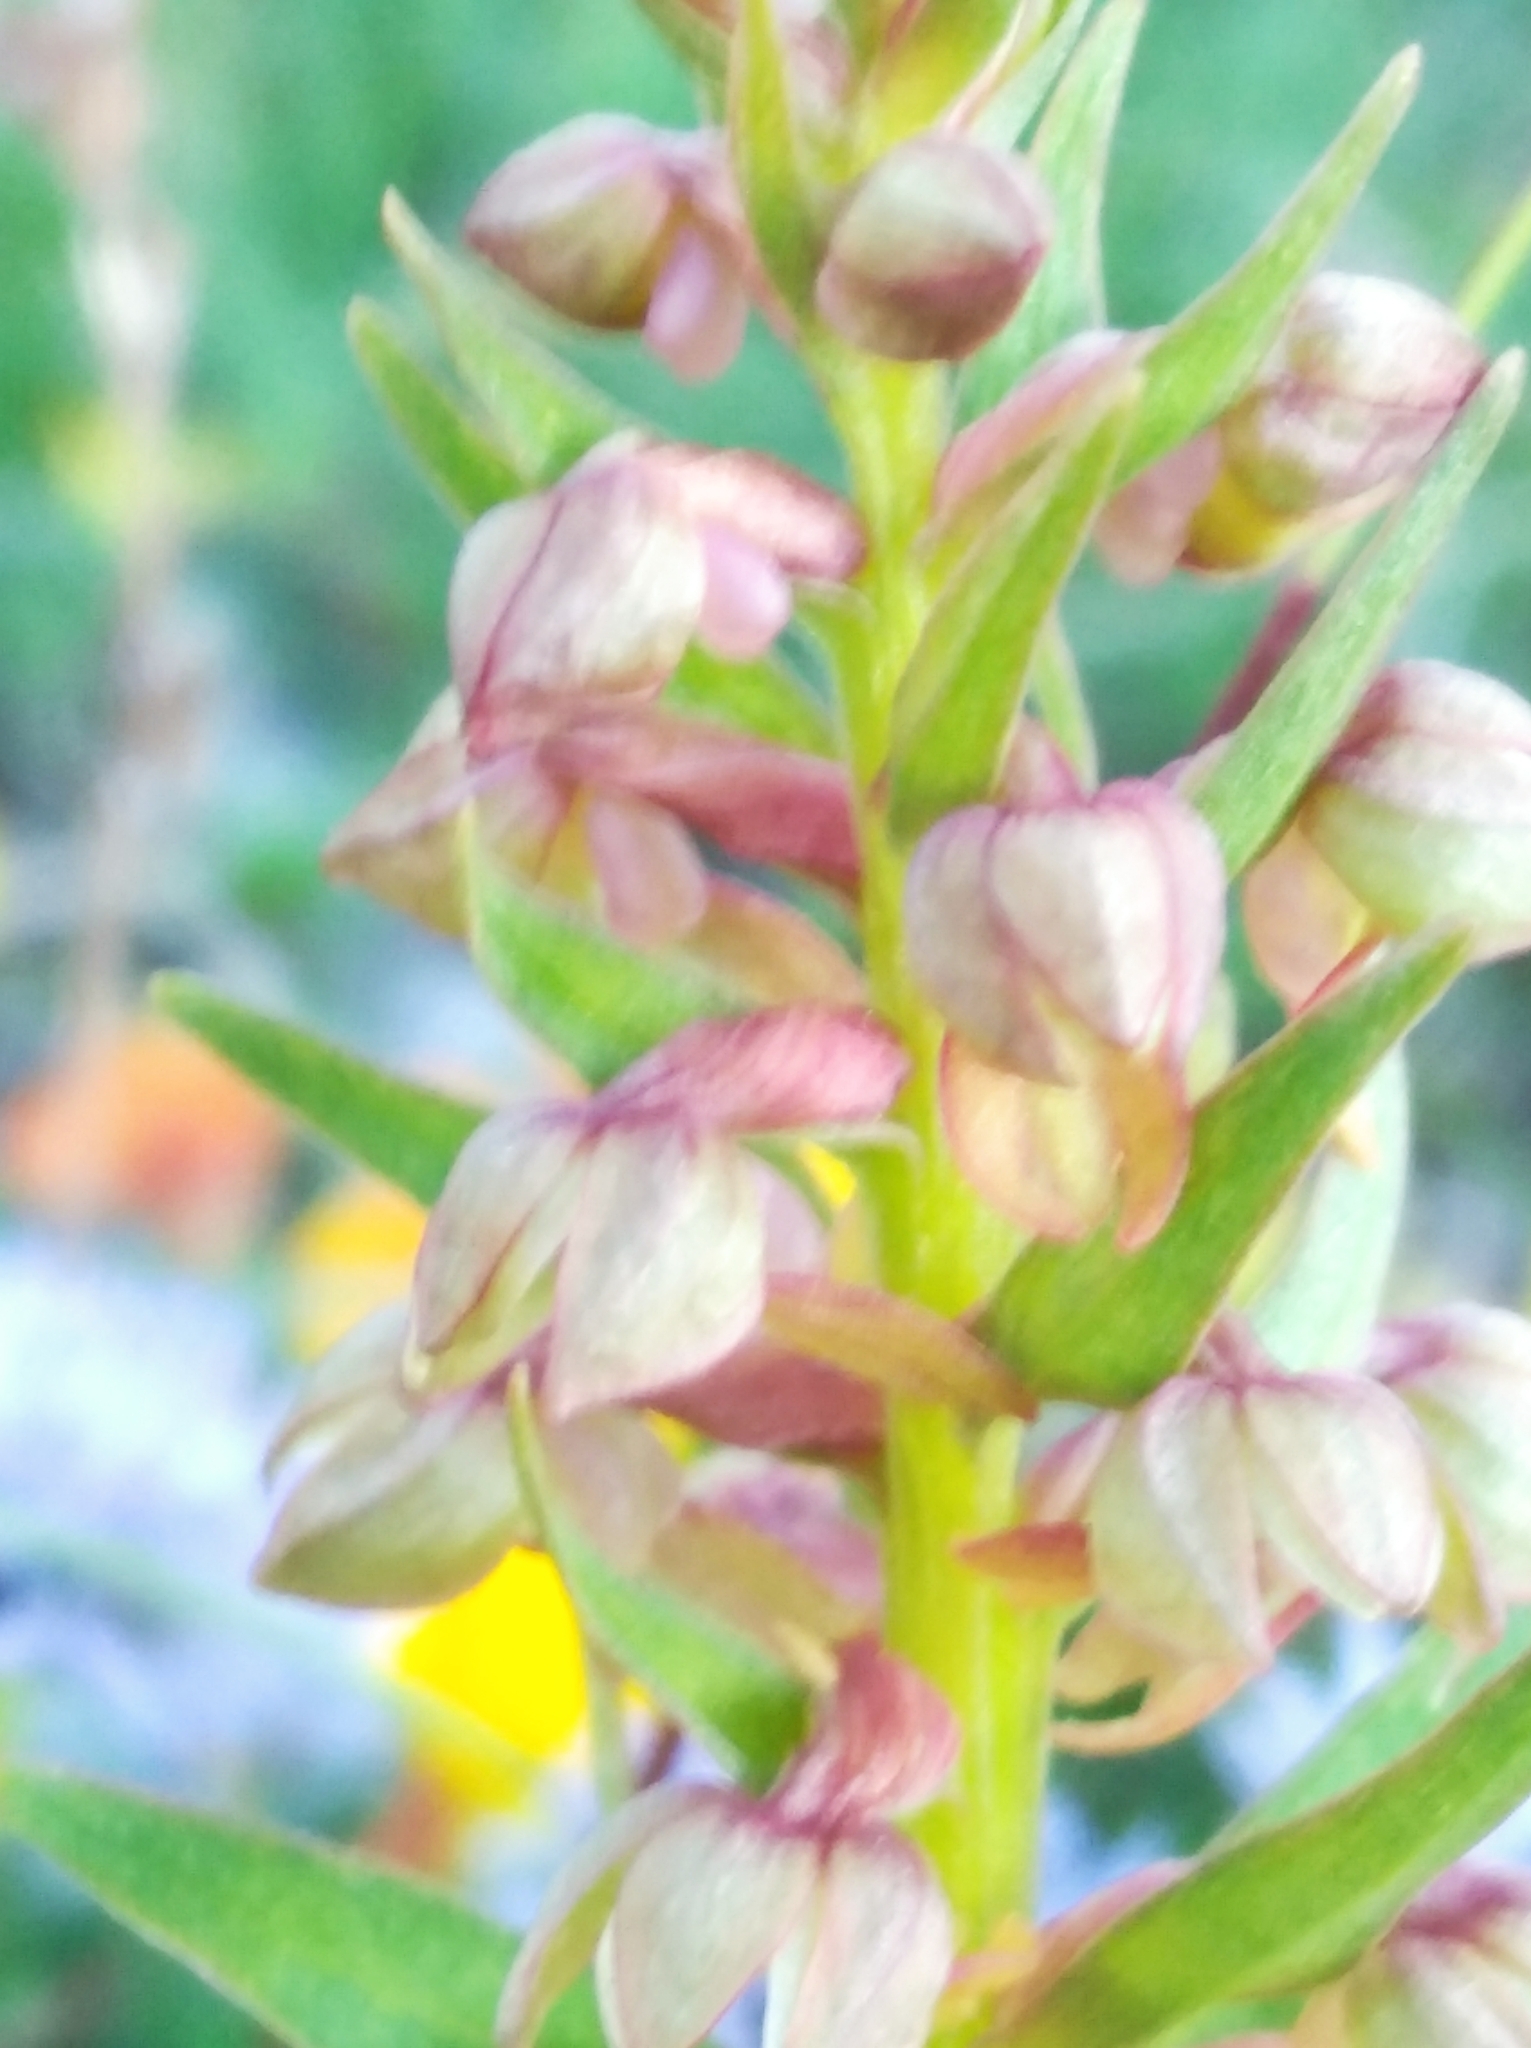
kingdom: Plantae
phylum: Tracheophyta
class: Liliopsida
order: Asparagales
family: Orchidaceae
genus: Dactylorhiza
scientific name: Dactylorhiza viridis
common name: Longbract frog orchid
